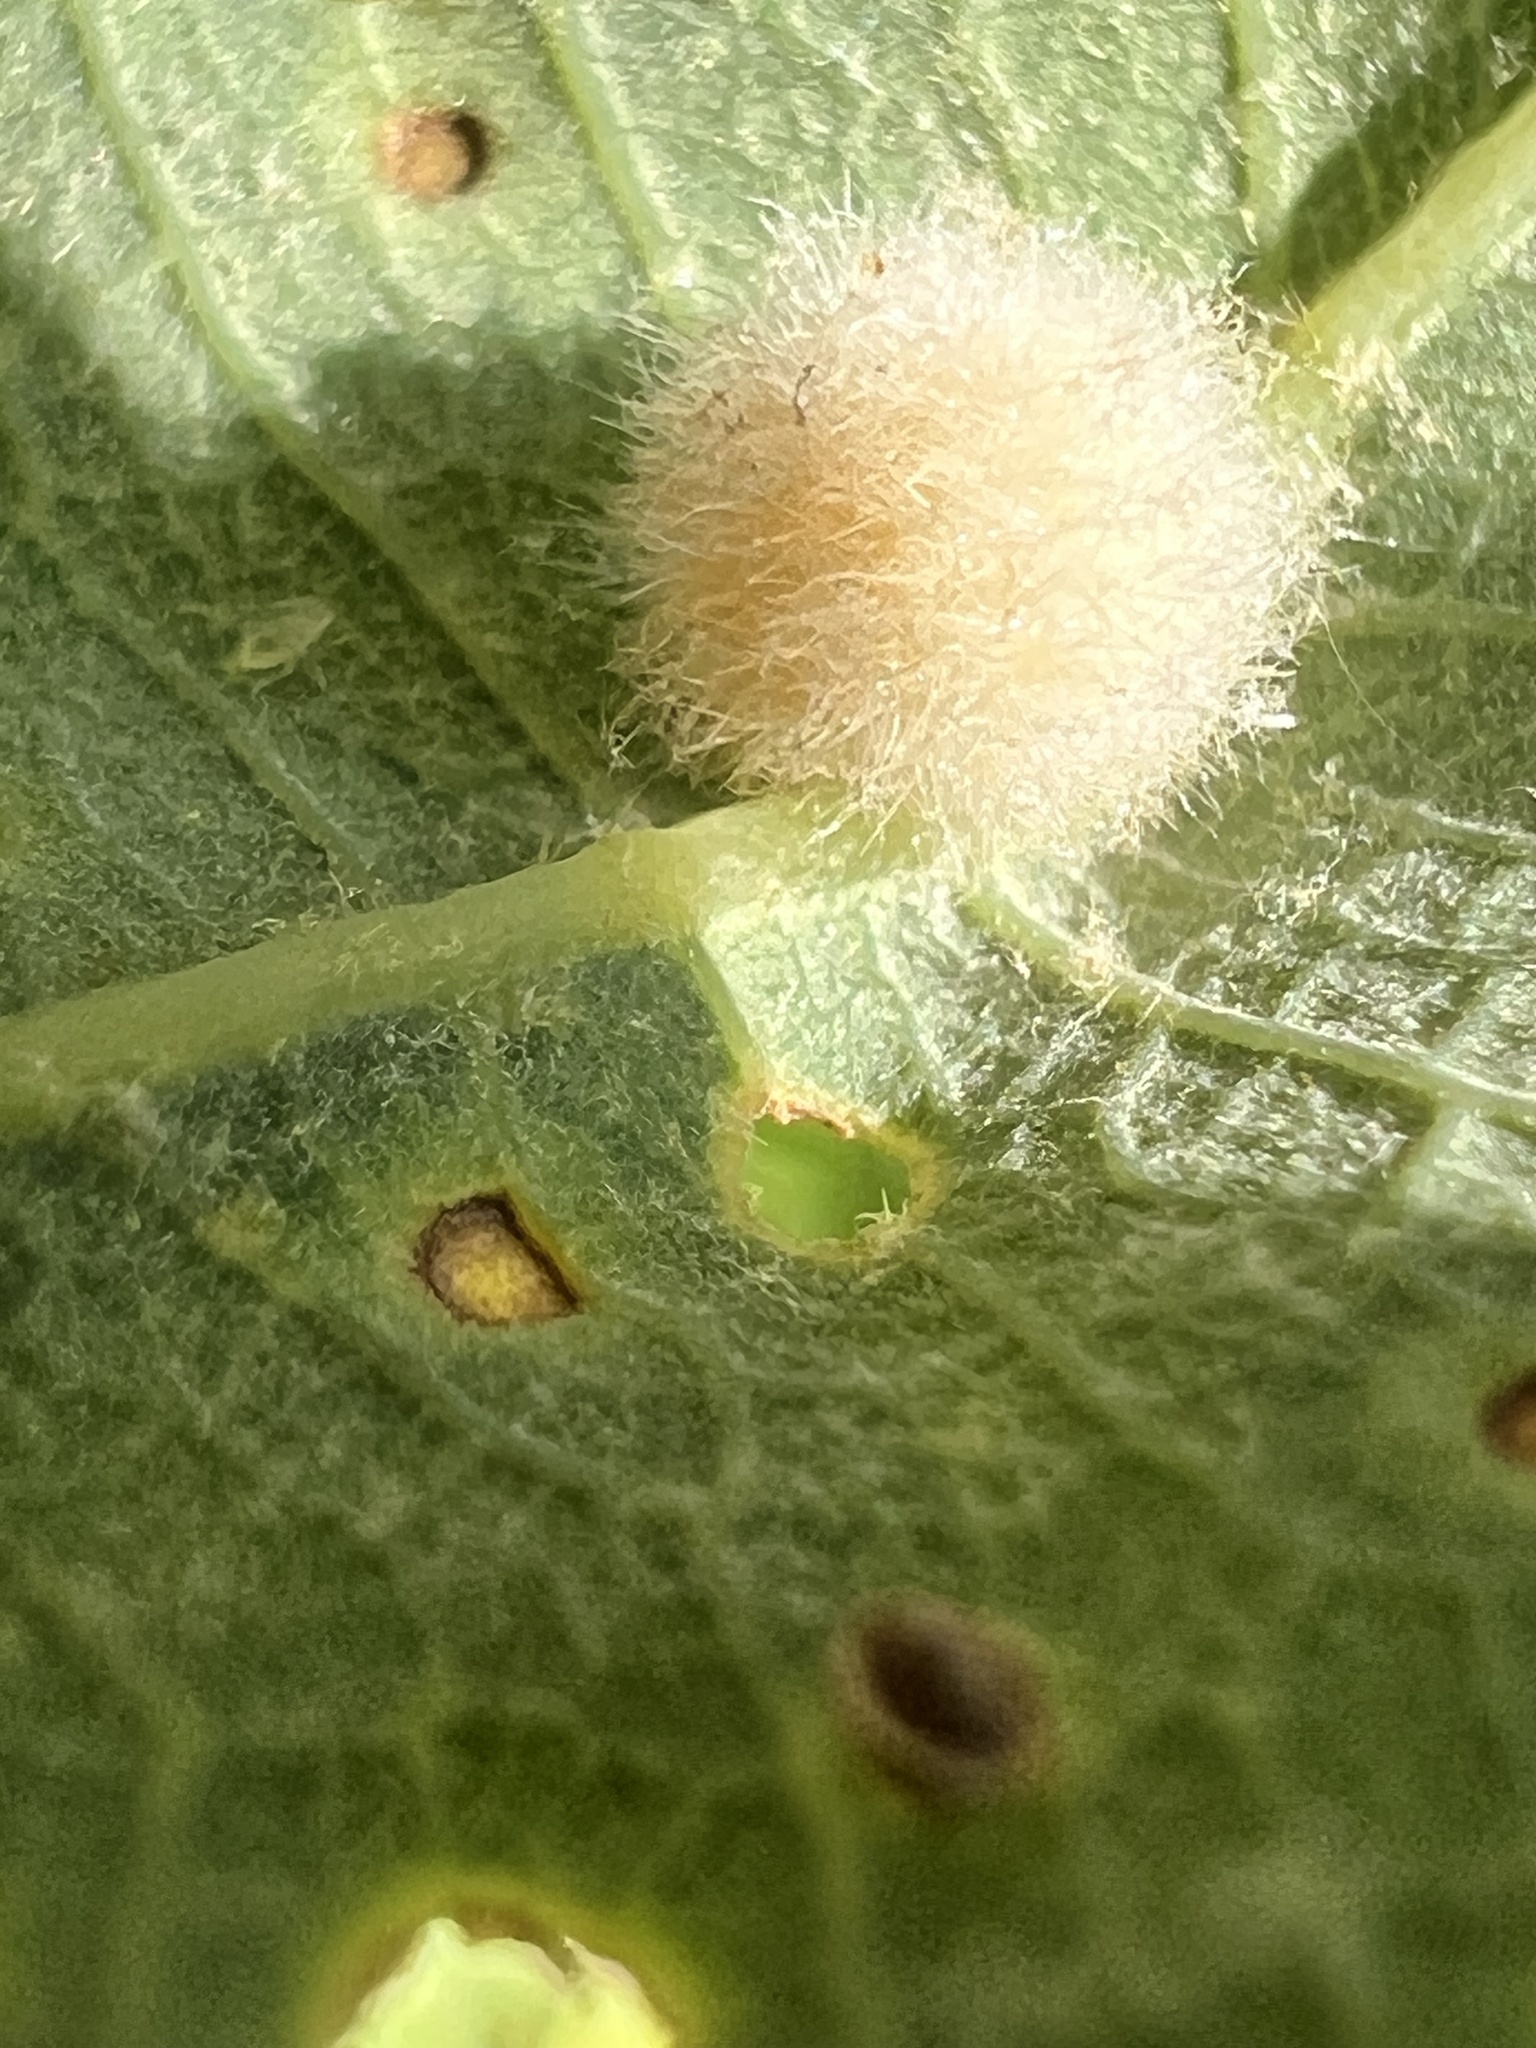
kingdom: Animalia
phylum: Arthropoda
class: Insecta
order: Hymenoptera
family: Cynipidae
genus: Philonix
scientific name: Philonix fulvicollis
